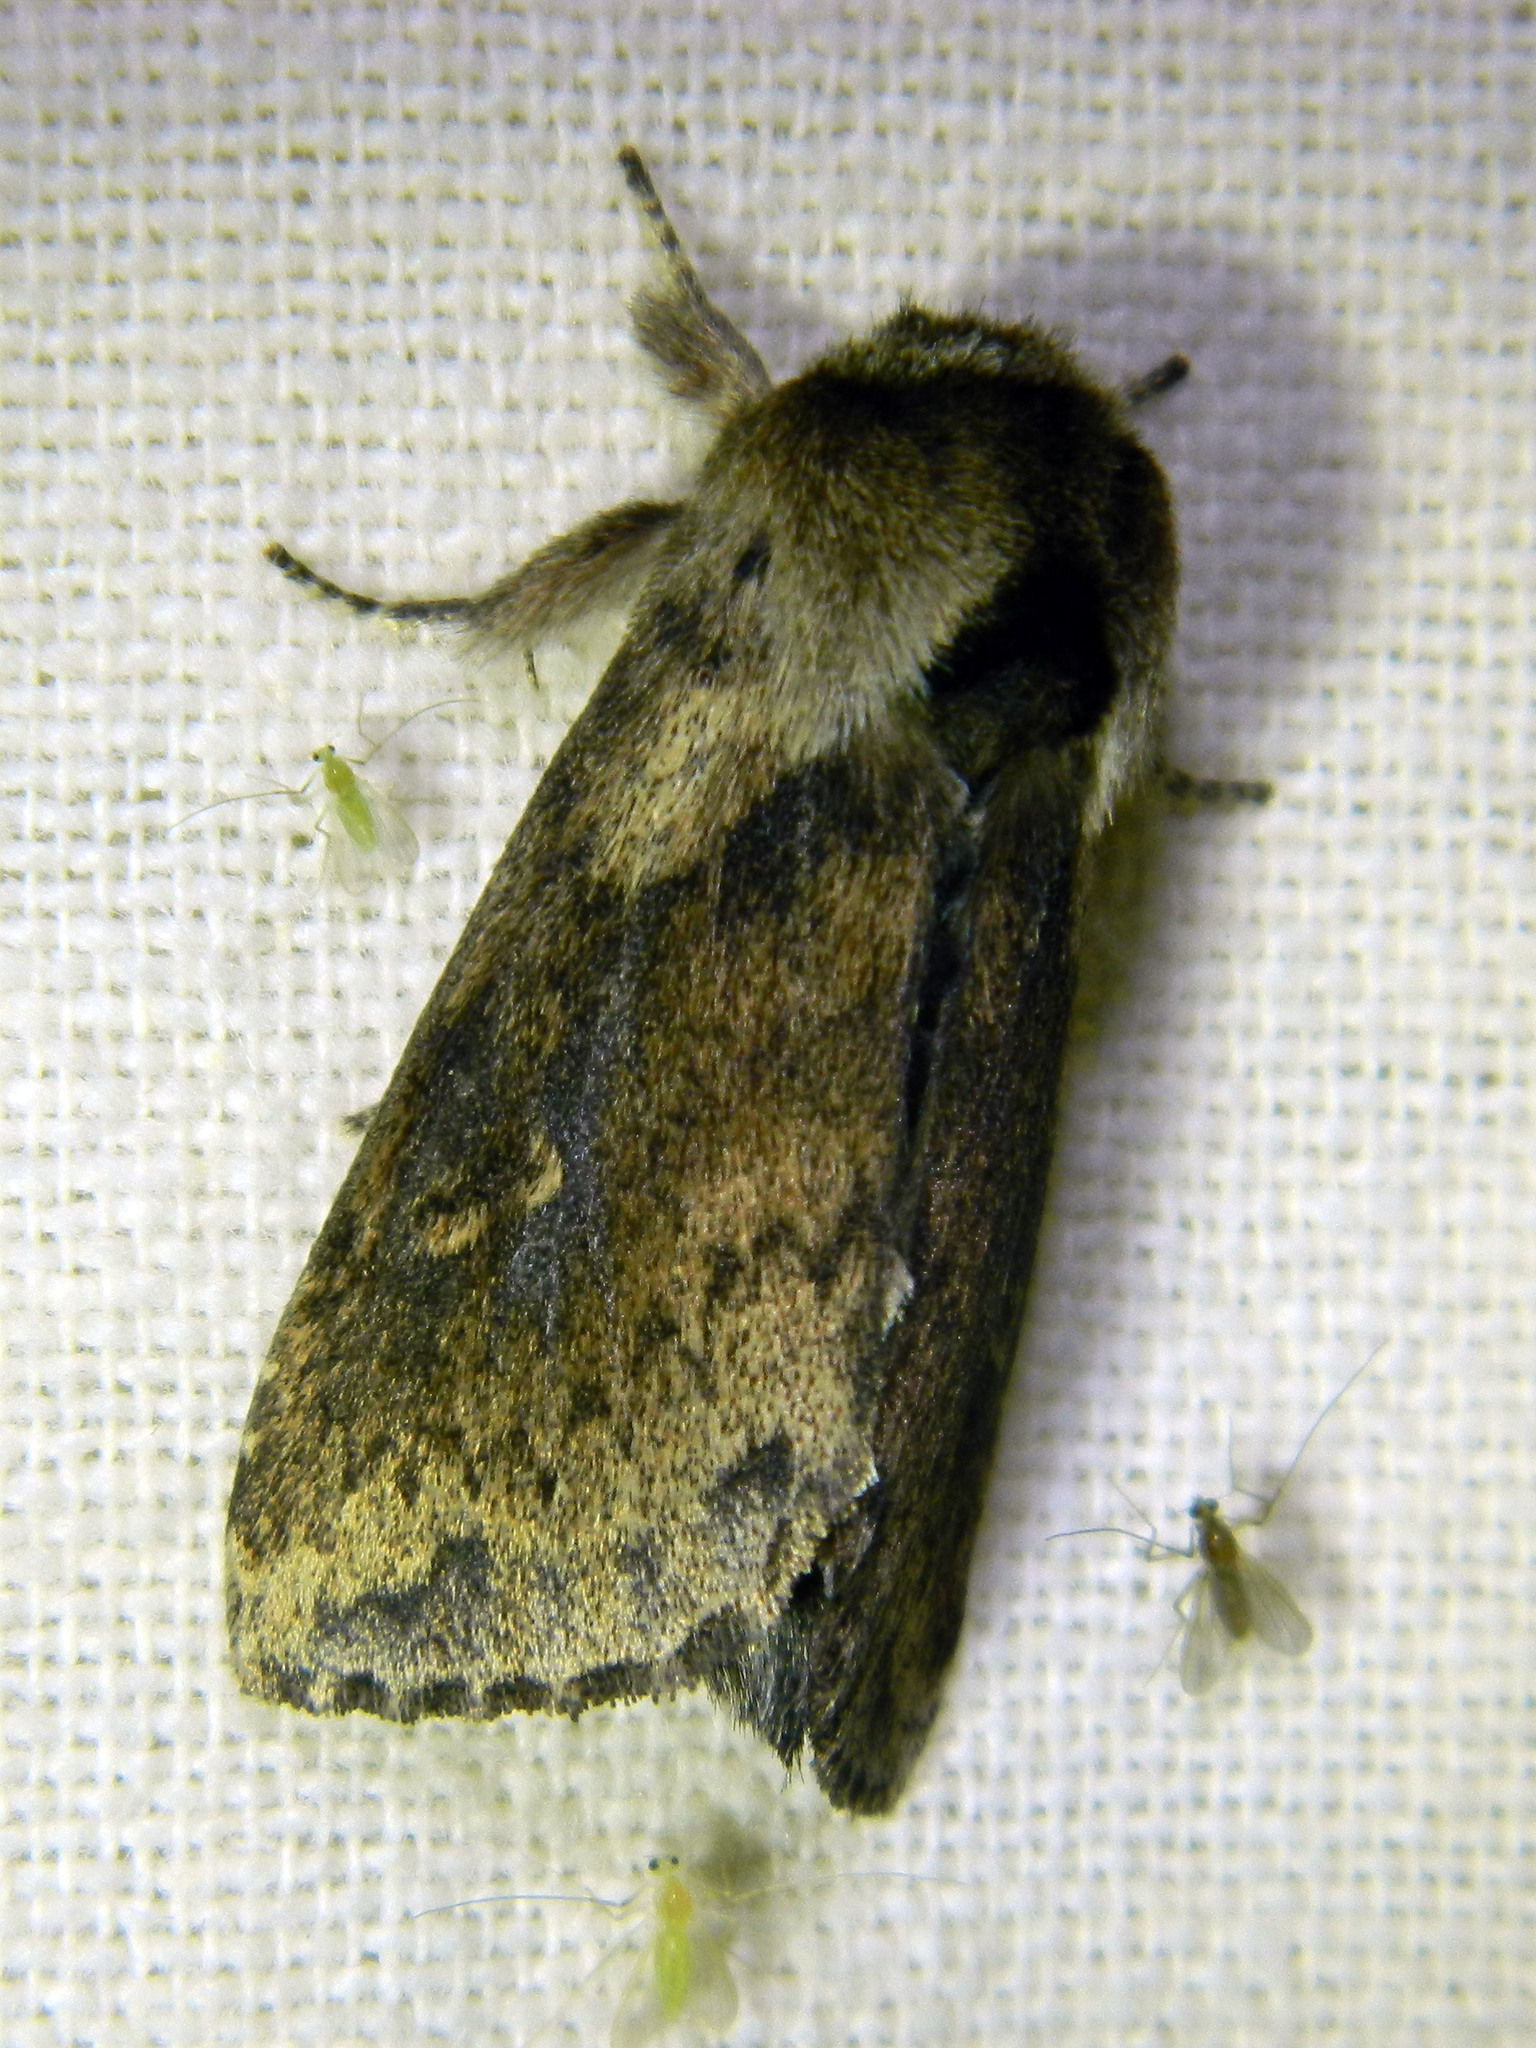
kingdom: Animalia
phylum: Arthropoda
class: Insecta
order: Lepidoptera
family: Noctuidae
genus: Bellura
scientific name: Bellura vulnifica
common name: Black-tailed diver moth
